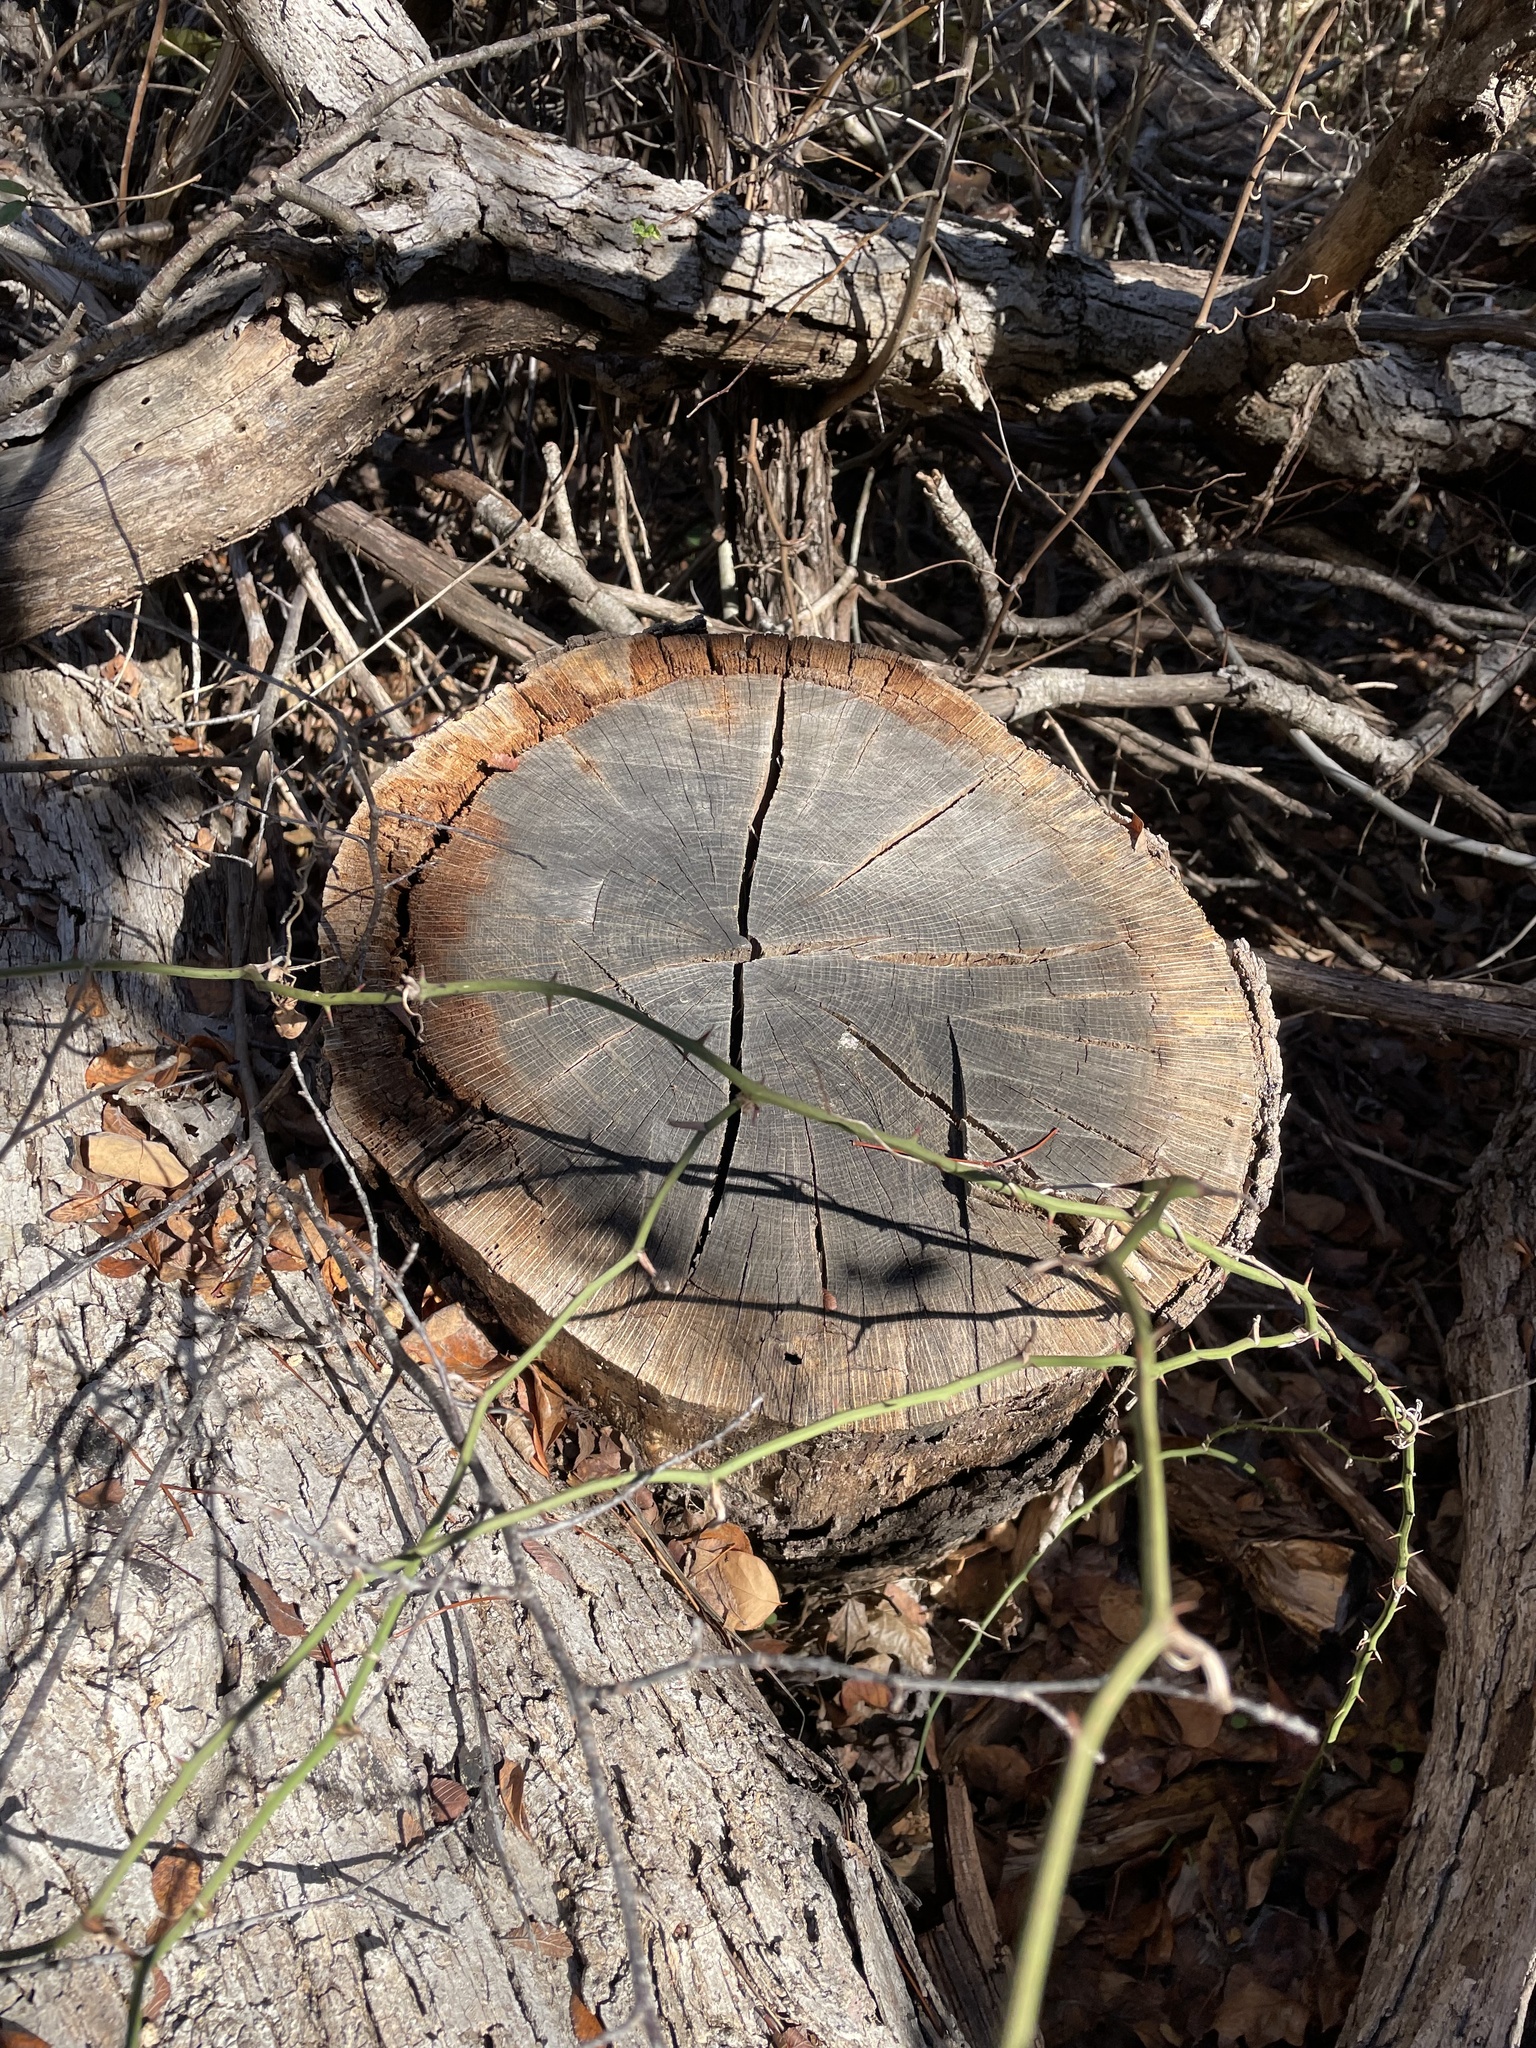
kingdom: Plantae
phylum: Tracheophyta
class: Magnoliopsida
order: Fagales
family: Fagaceae
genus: Quercus
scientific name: Quercus sinuata
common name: Durand oak
